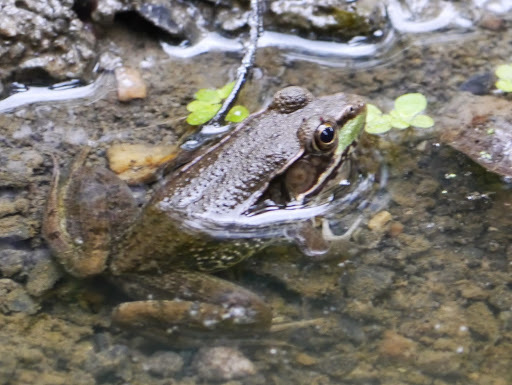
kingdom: Animalia
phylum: Chordata
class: Amphibia
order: Anura
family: Ranidae
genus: Lithobates
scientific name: Lithobates clamitans
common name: Green frog
